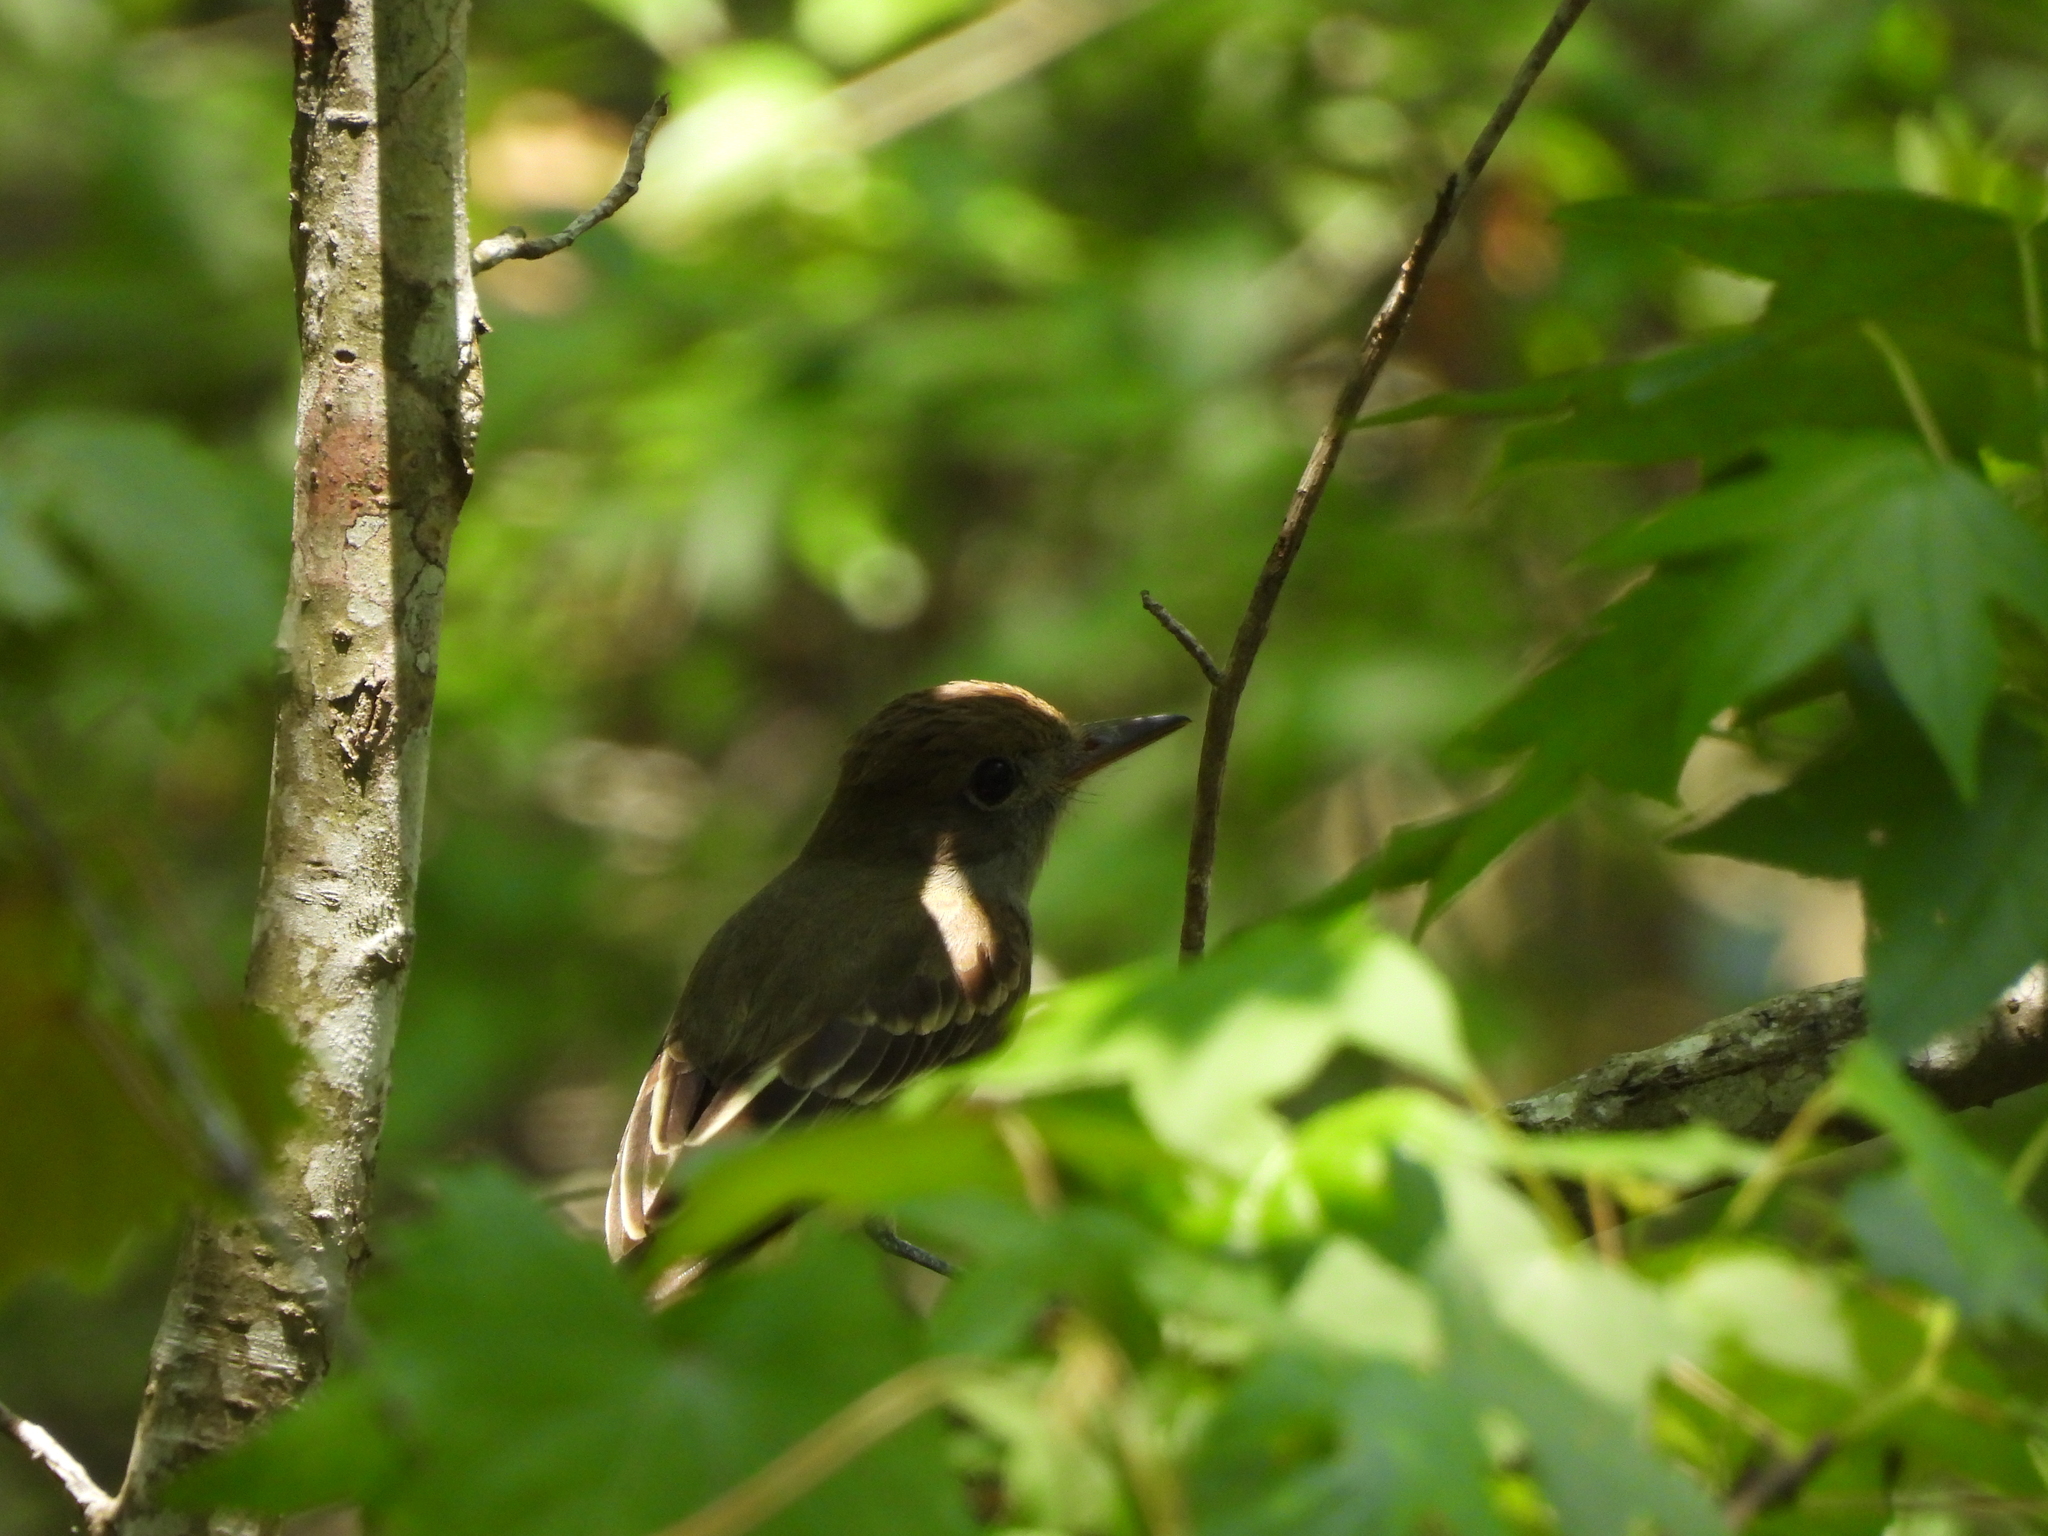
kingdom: Animalia
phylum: Chordata
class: Aves
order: Passeriformes
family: Tyrannidae
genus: Myiarchus
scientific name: Myiarchus crinitus
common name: Great crested flycatcher
